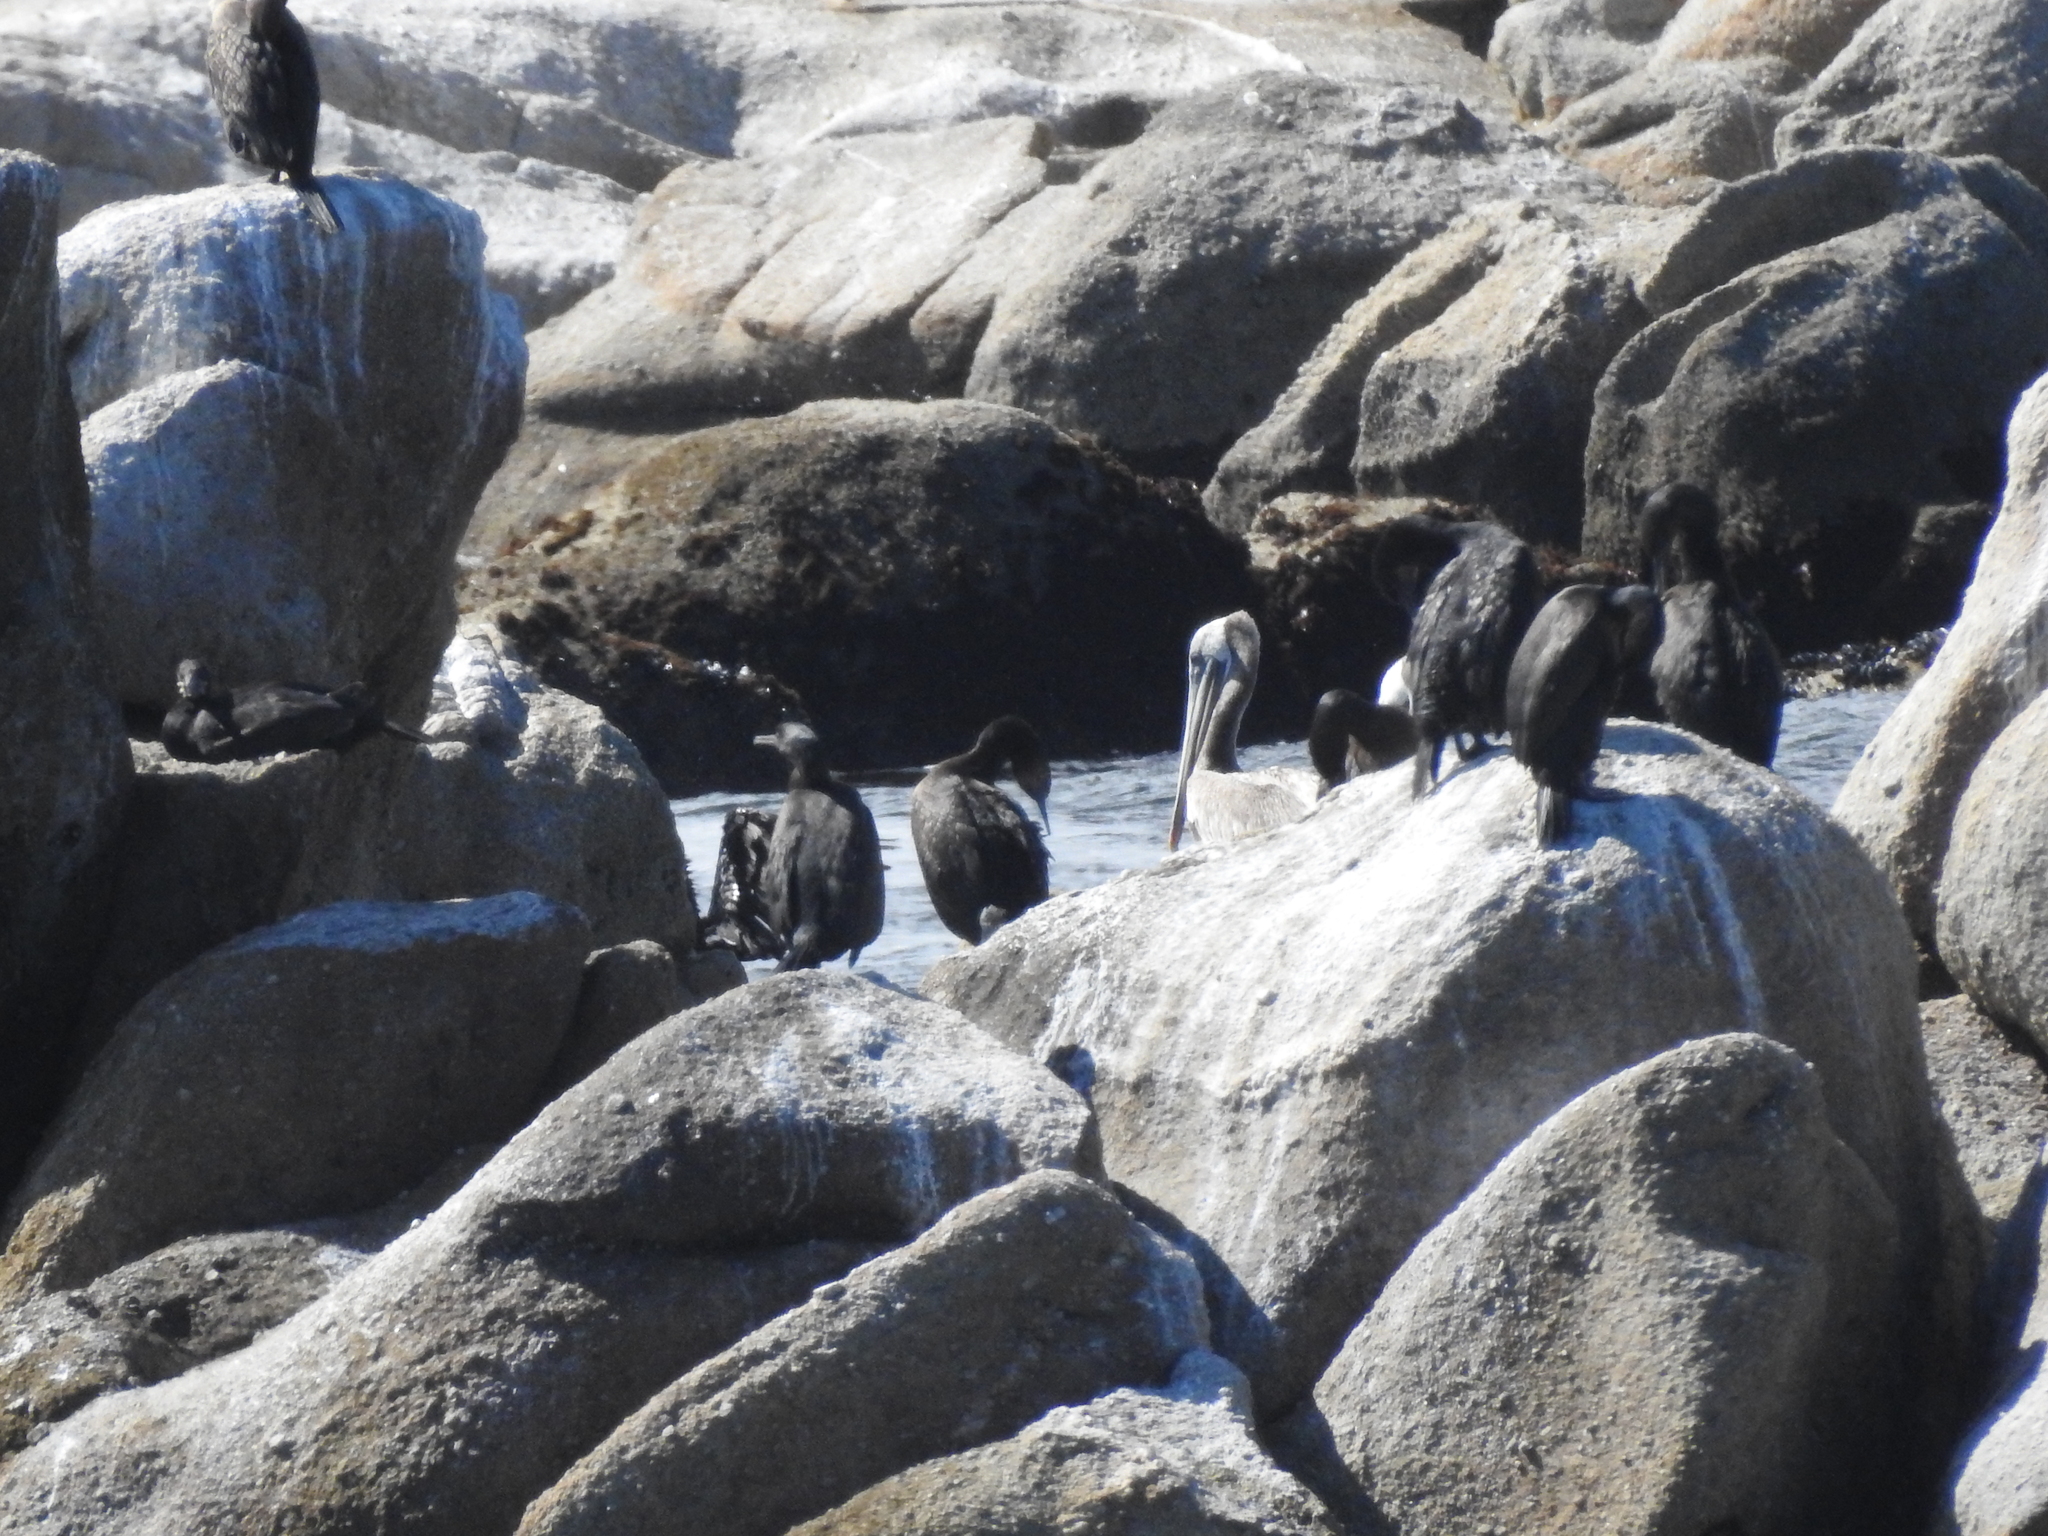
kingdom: Animalia
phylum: Chordata
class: Aves
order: Pelecaniformes
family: Pelecanidae
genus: Pelecanus
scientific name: Pelecanus occidentalis
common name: Brown pelican
